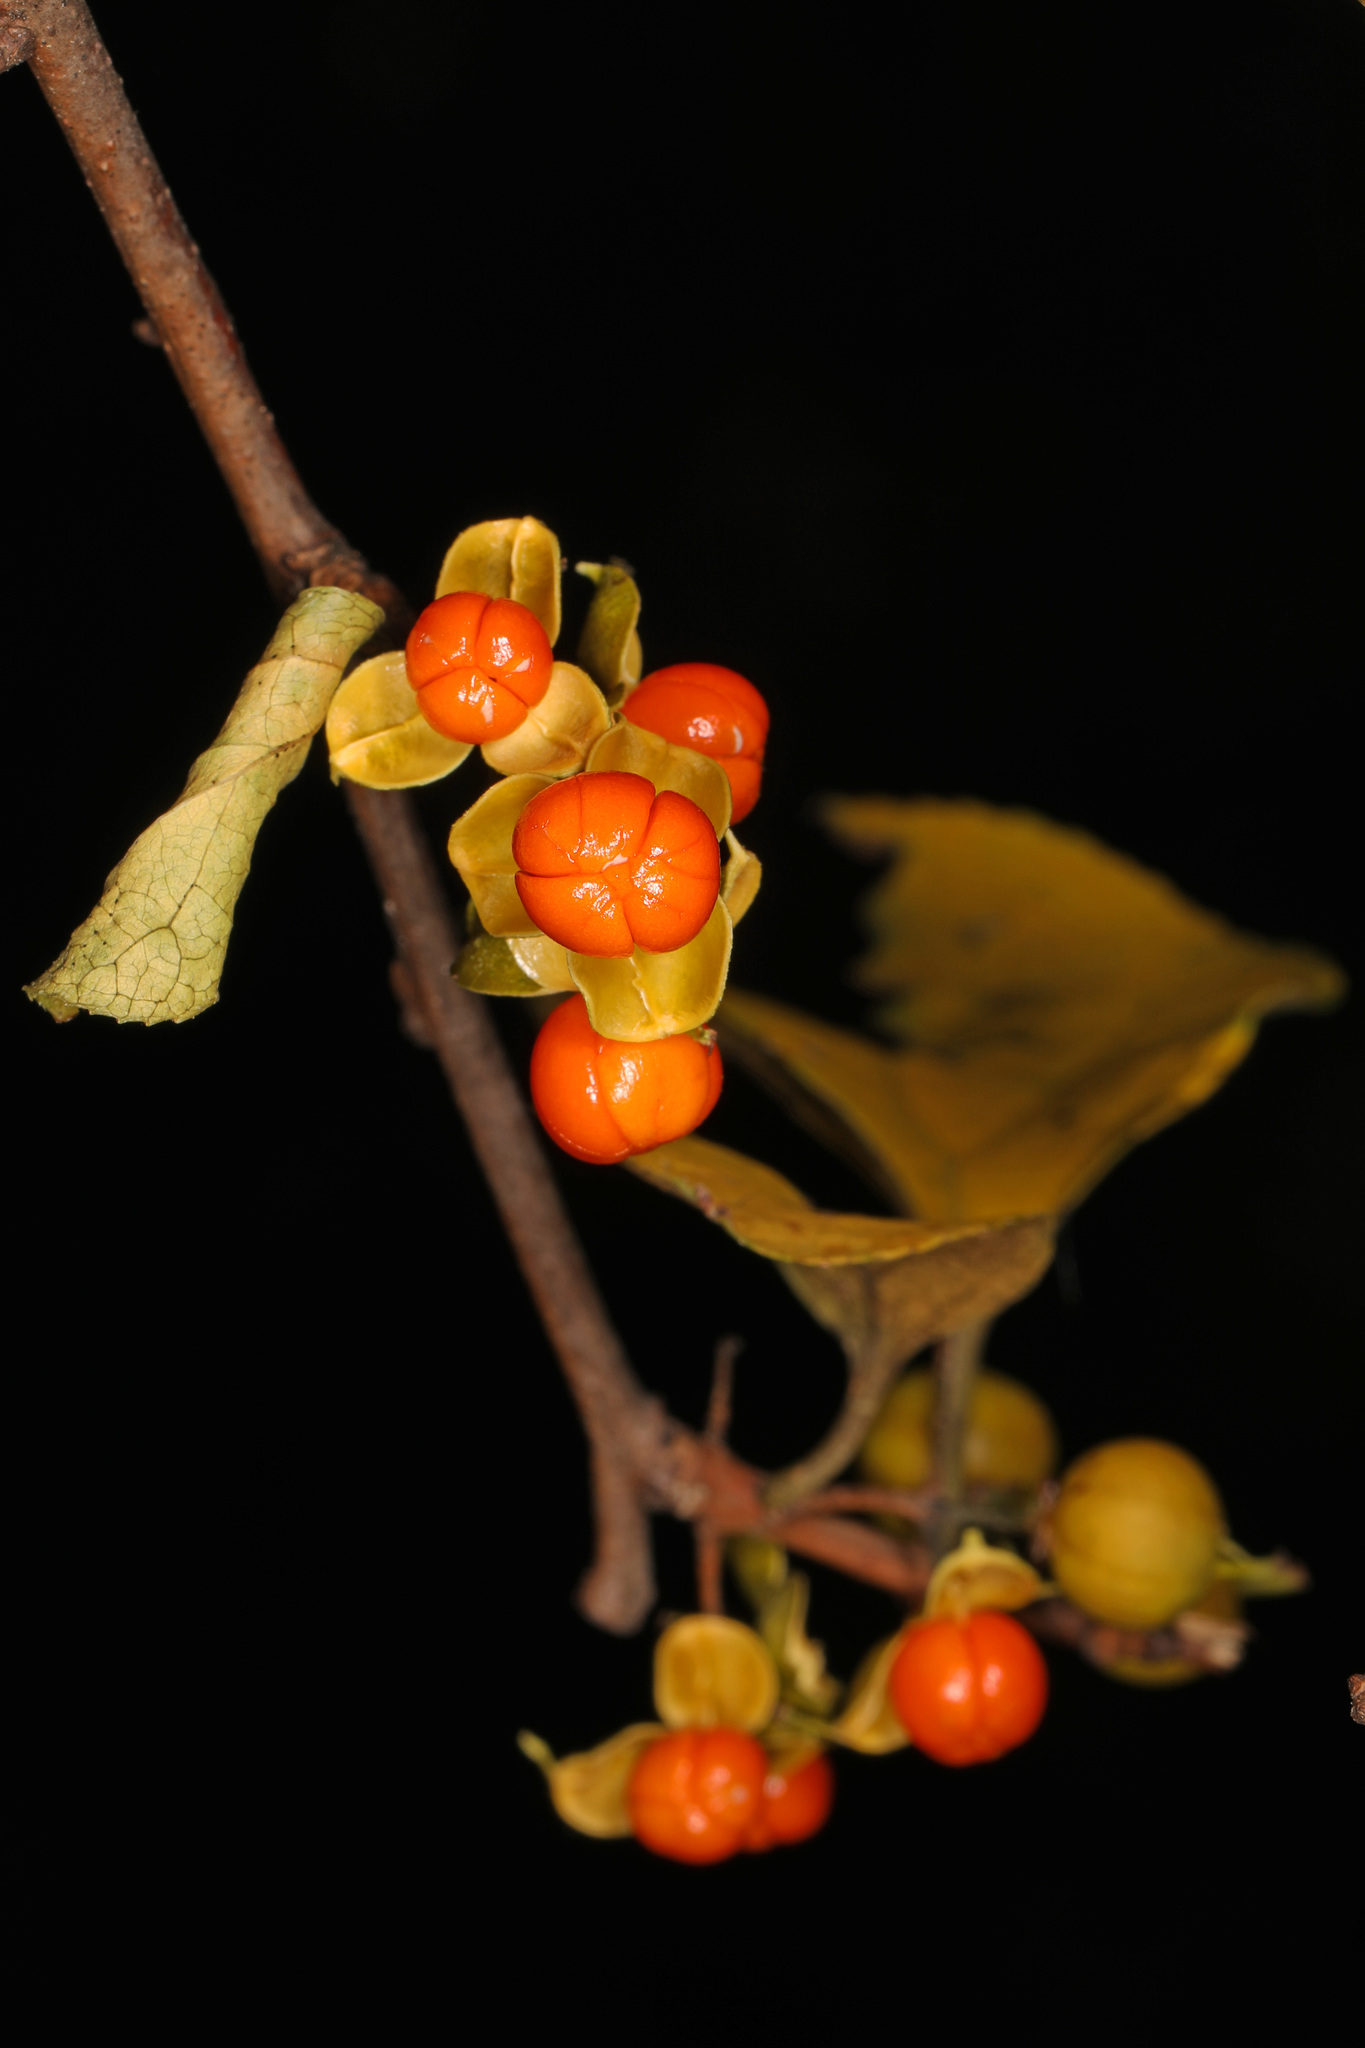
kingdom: Plantae
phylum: Tracheophyta
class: Magnoliopsida
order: Celastrales
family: Celastraceae
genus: Celastrus
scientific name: Celastrus orbiculatus
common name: Oriental bittersweet
